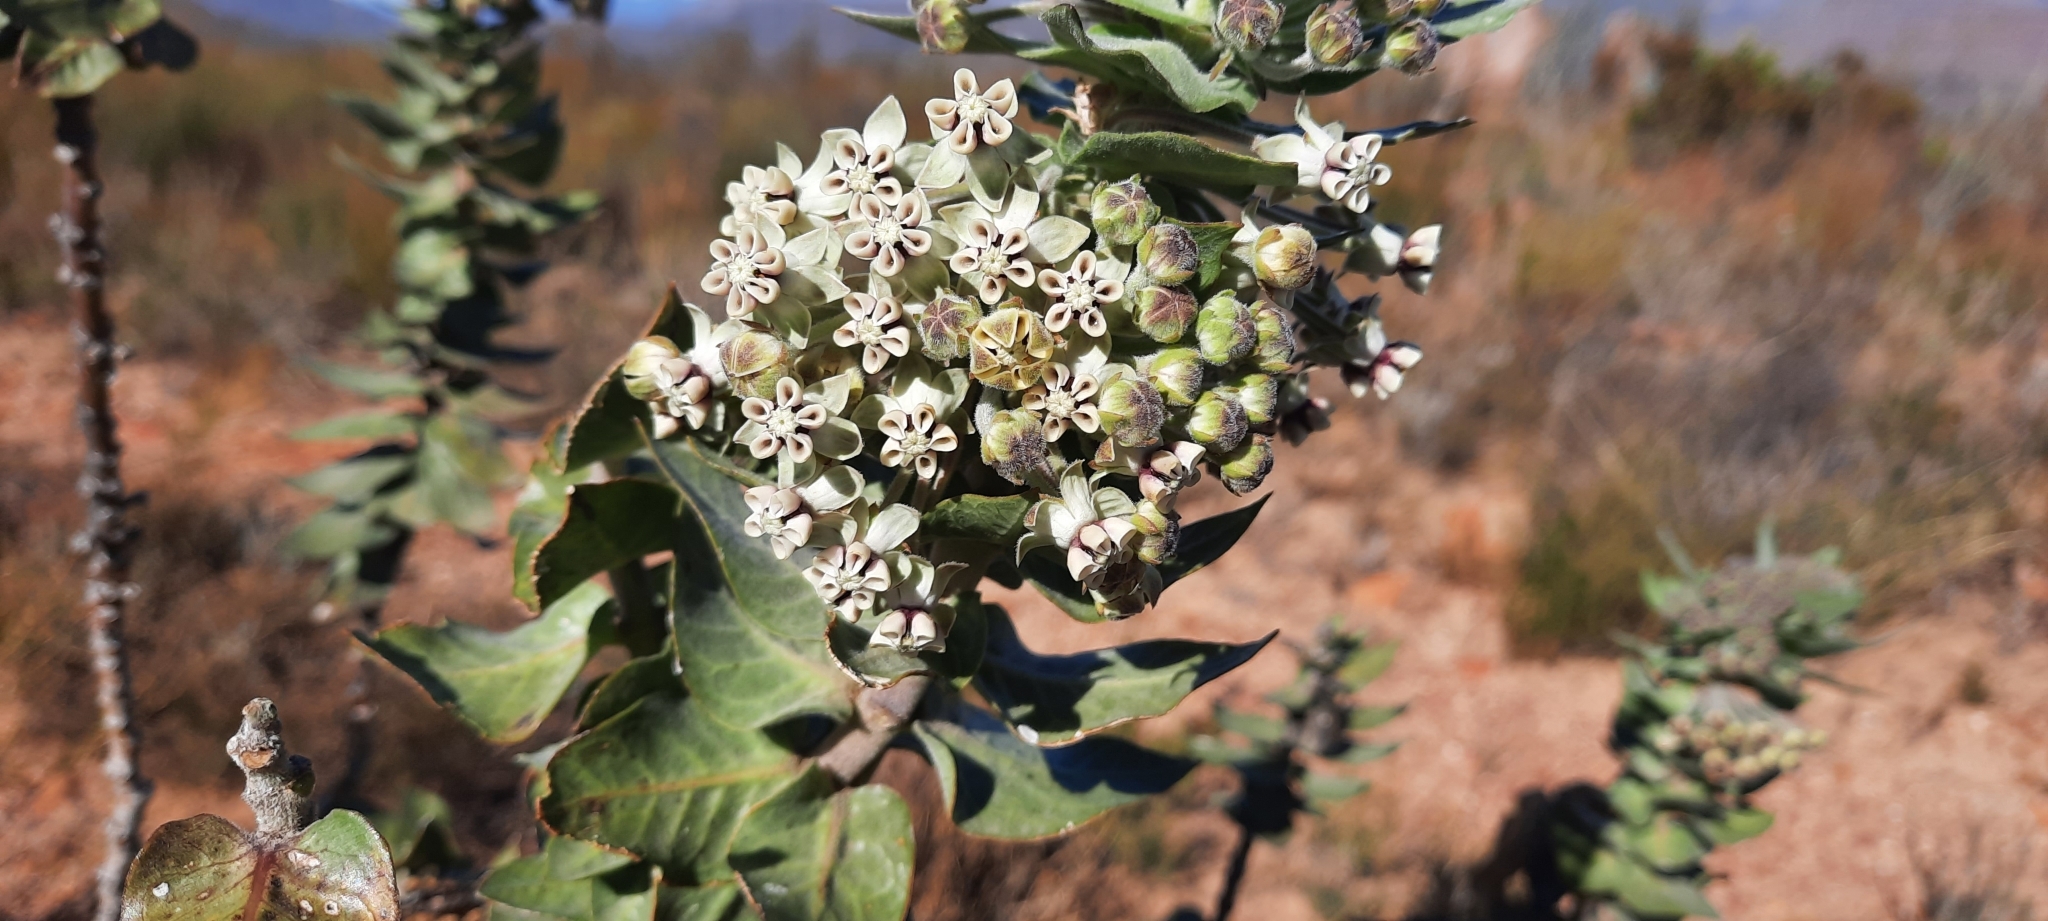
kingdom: Plantae
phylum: Tracheophyta
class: Magnoliopsida
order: Gentianales
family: Apocynaceae
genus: Gomphocarpus
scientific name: Gomphocarpus cancellatus
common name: Wild cotton
